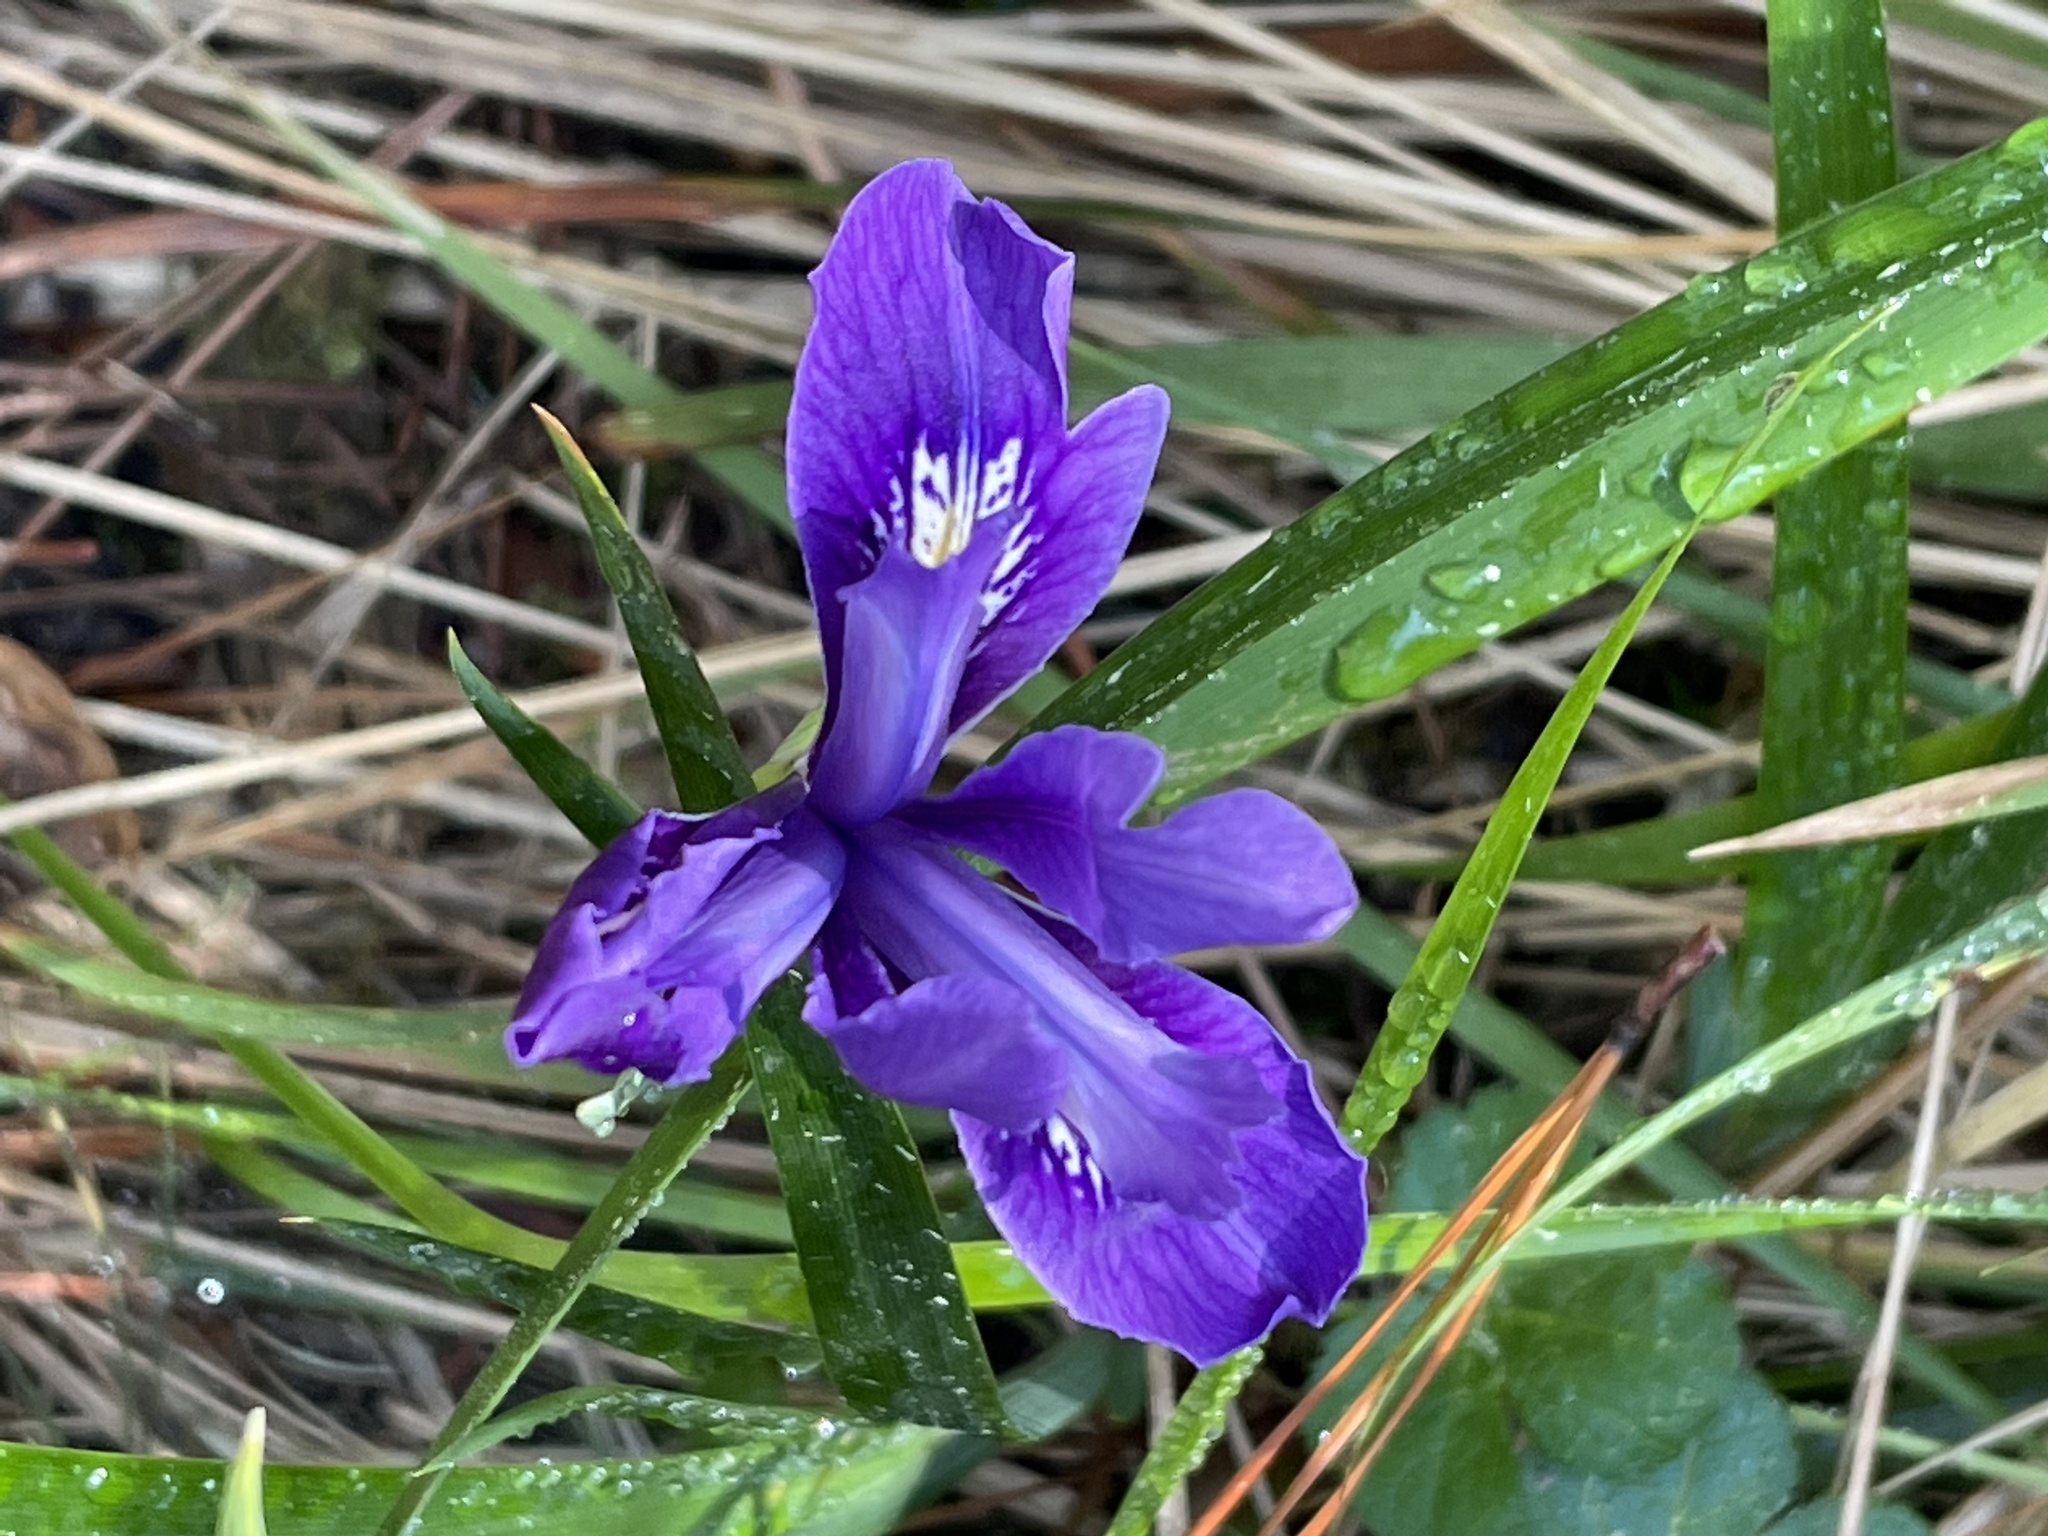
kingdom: Plantae
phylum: Tracheophyta
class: Liliopsida
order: Asparagales
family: Iridaceae
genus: Iris
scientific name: Iris douglasiana
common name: Marin iris
